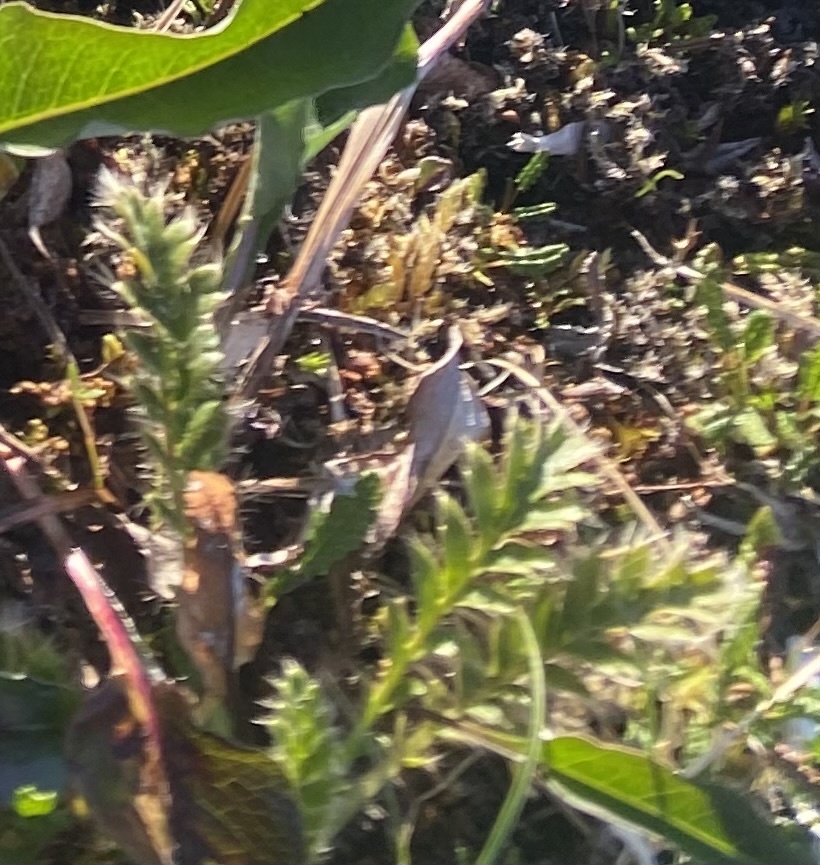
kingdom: Plantae
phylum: Tracheophyta
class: Magnoliopsida
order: Rosales
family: Rosaceae
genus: Geum
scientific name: Geum glaciale
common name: Glacier avens
